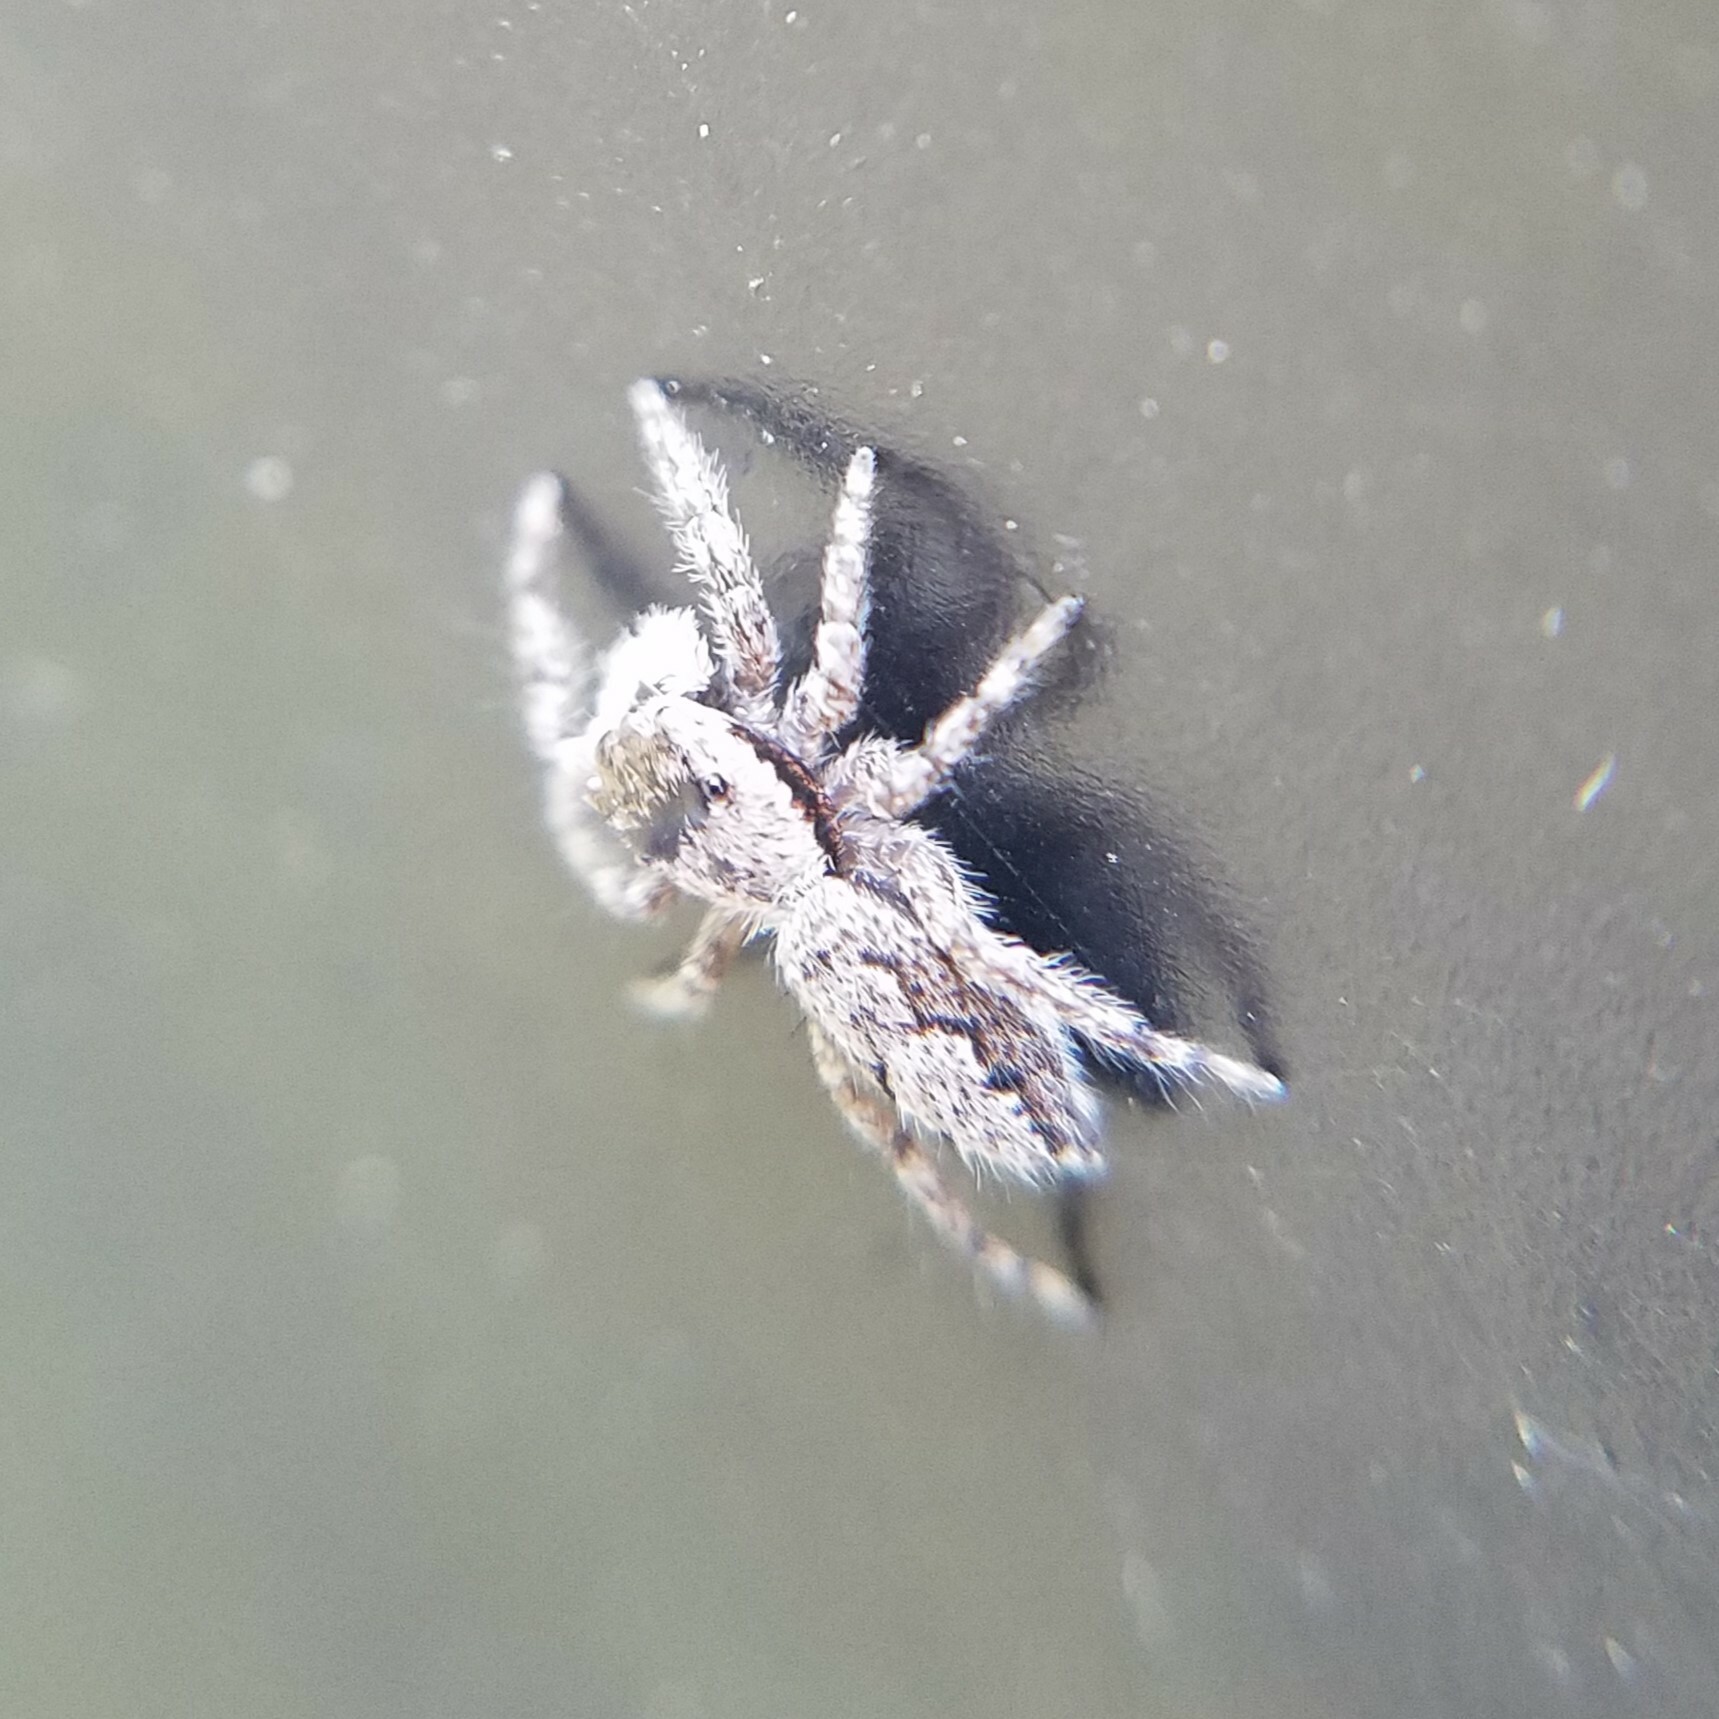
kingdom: Animalia
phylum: Arthropoda
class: Arachnida
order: Araneae
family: Salticidae
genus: Platycryptus
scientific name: Platycryptus undatus
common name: Tan jumping spider
